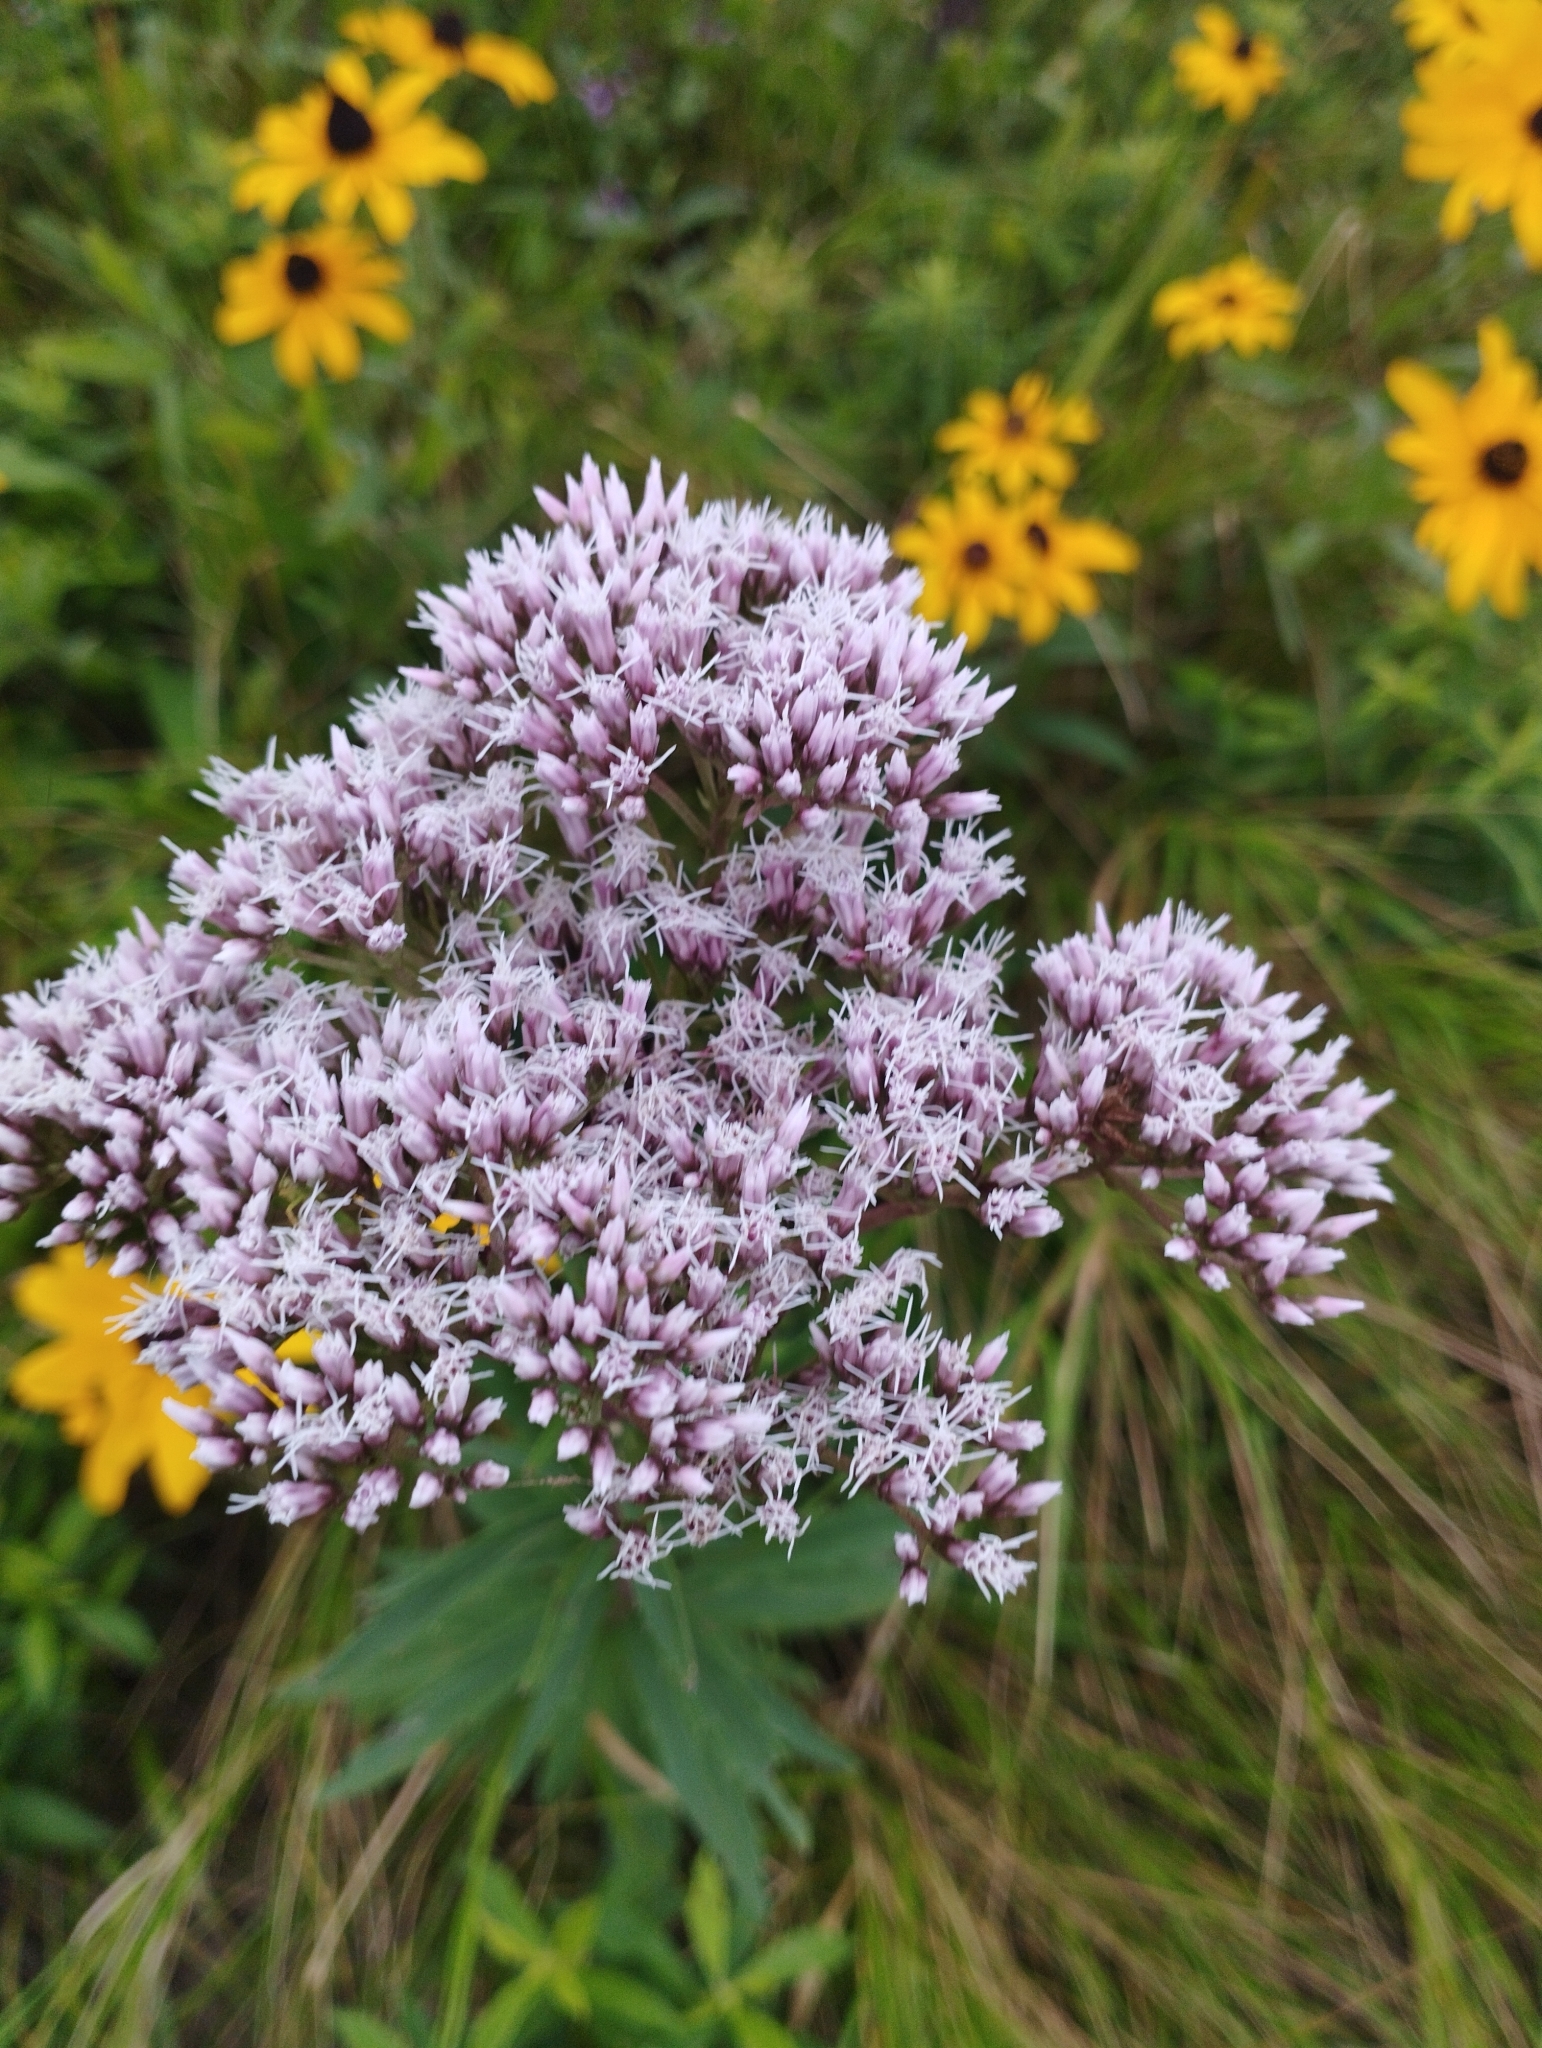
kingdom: Plantae
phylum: Tracheophyta
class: Magnoliopsida
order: Asterales
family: Asteraceae
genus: Eupatorium
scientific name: Eupatorium lindleyanum
